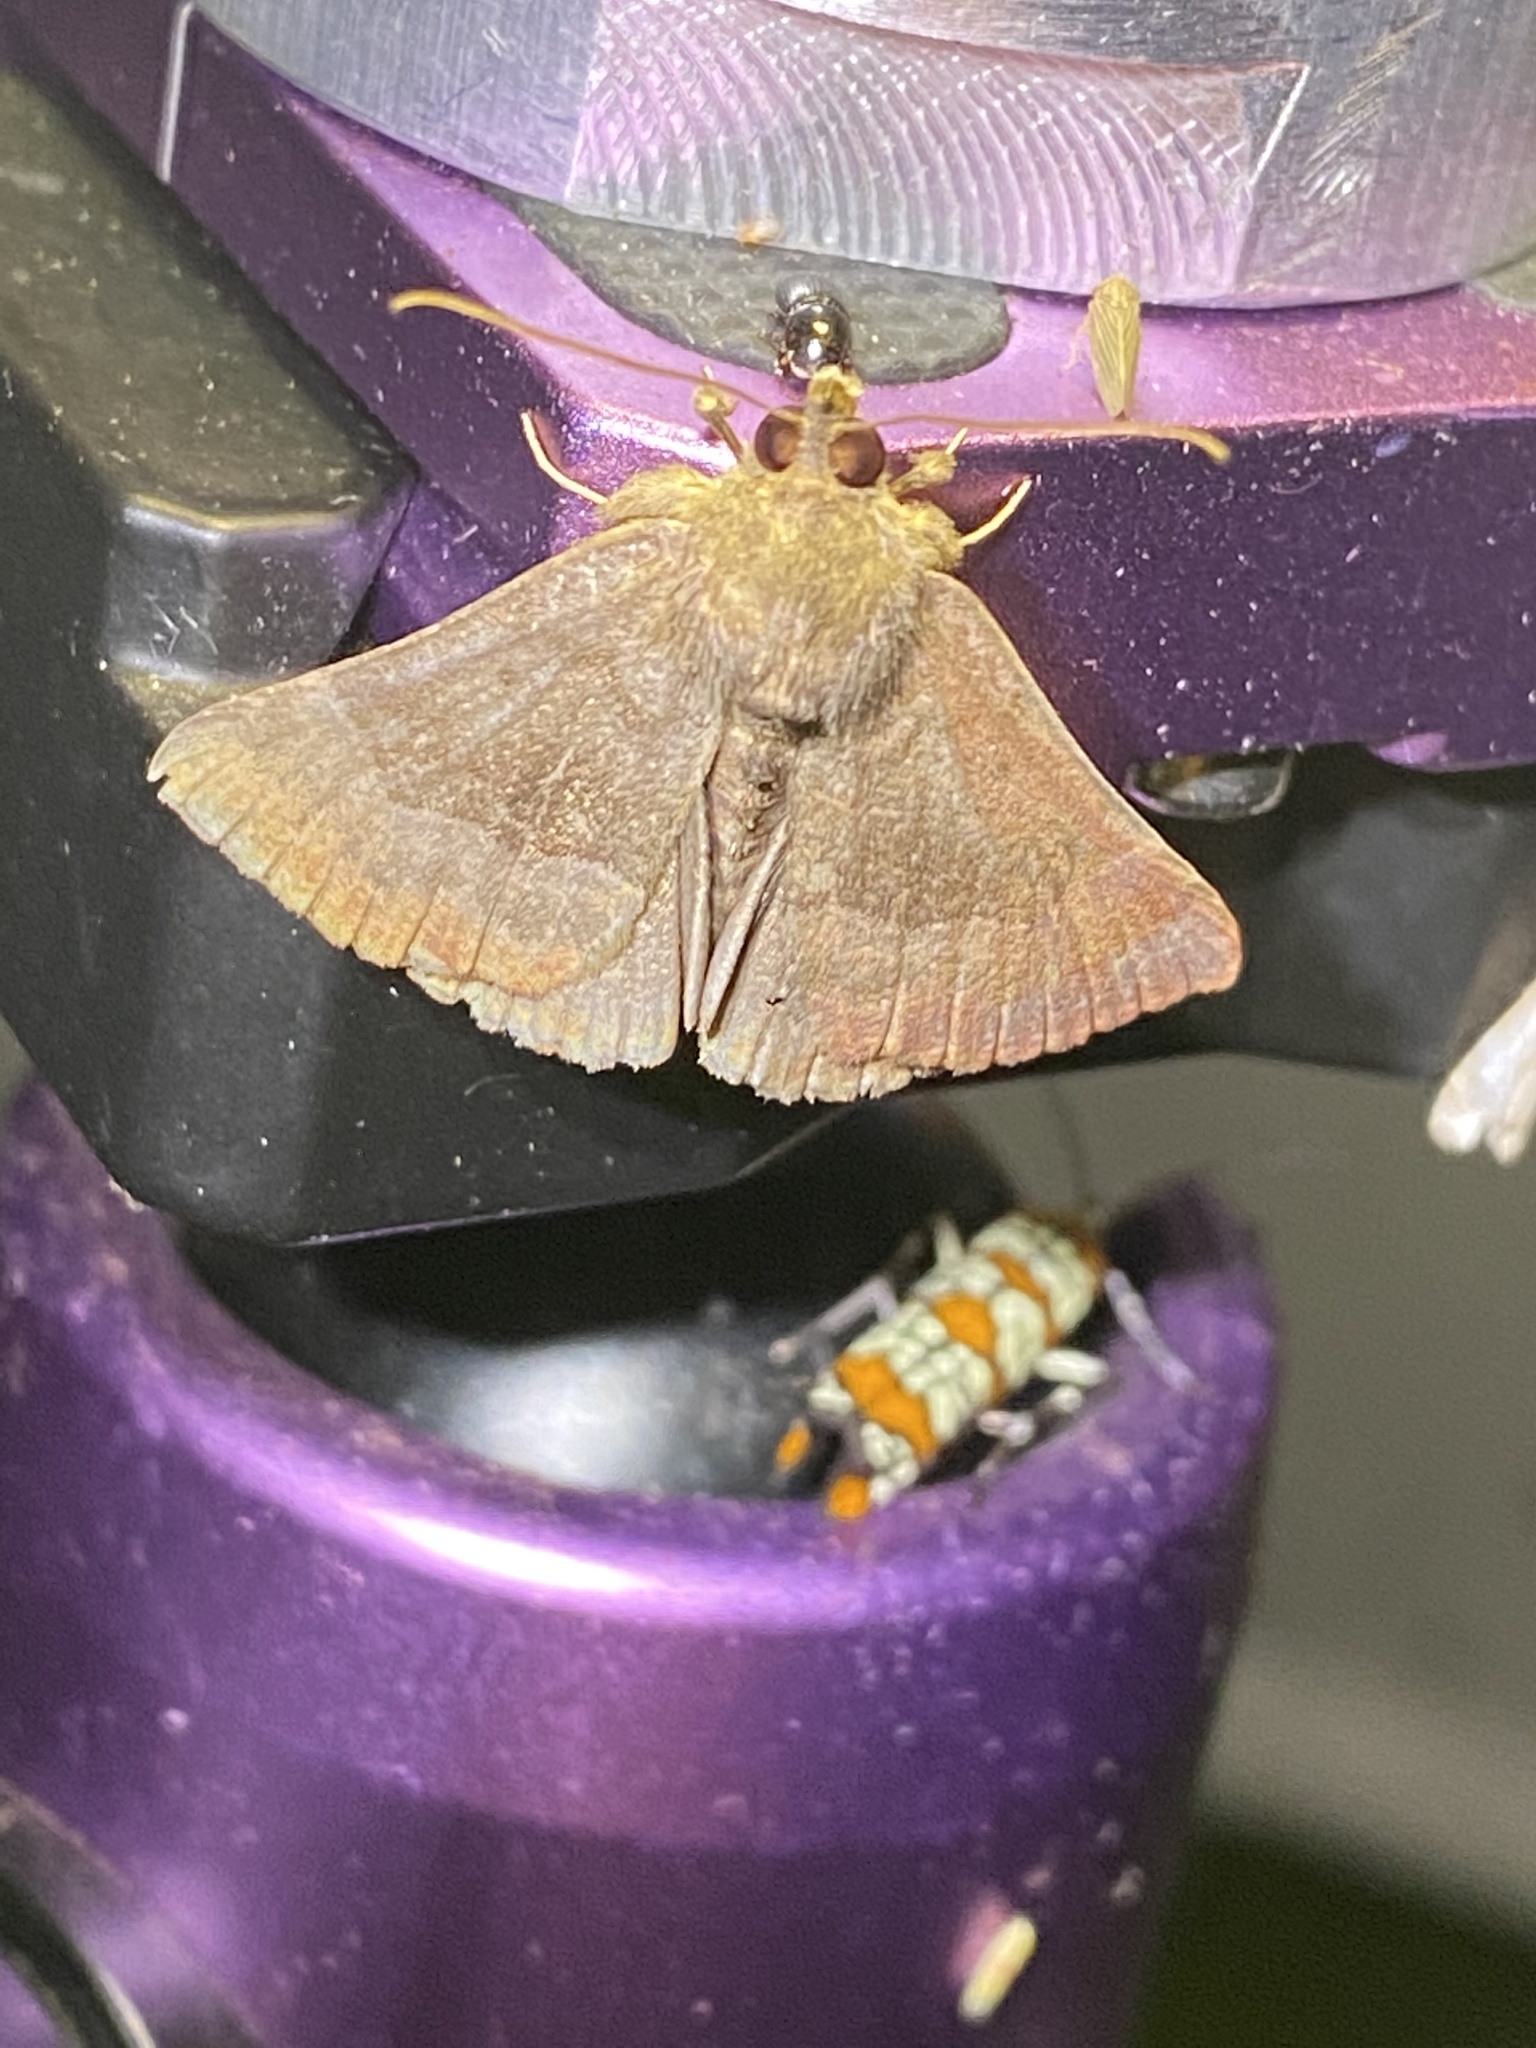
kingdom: Animalia
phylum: Arthropoda
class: Insecta
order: Lepidoptera
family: Erebidae
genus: Hypena
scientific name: Hypena madefactalis
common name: Gray-edged snout
